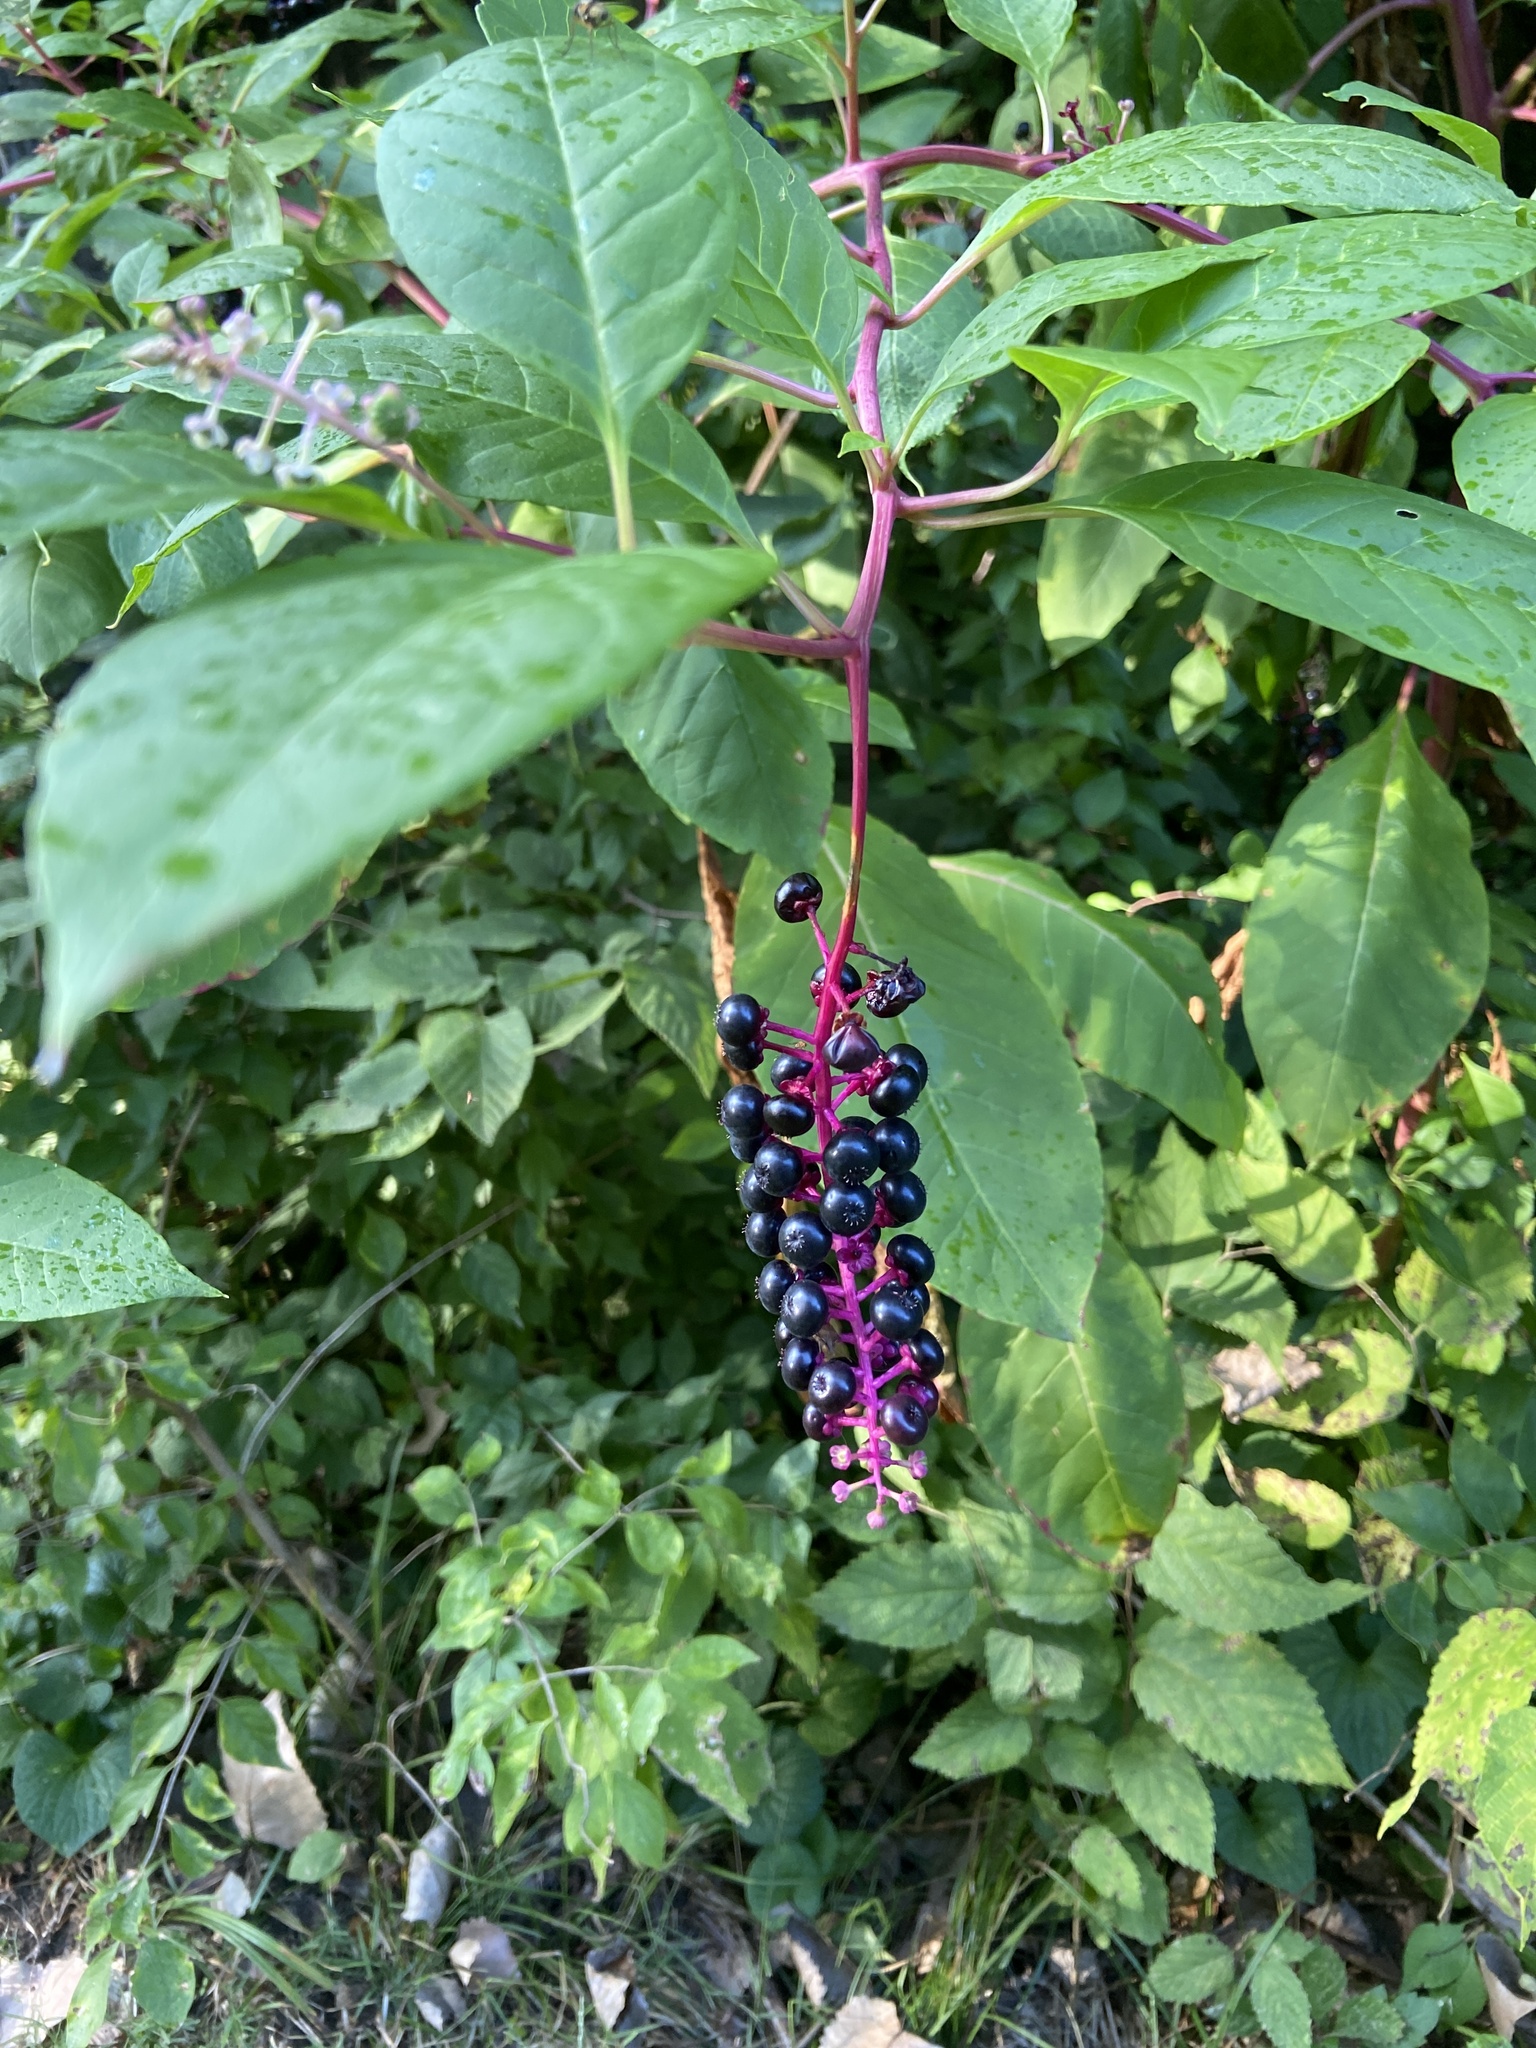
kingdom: Plantae
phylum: Tracheophyta
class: Magnoliopsida
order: Caryophyllales
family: Phytolaccaceae
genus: Phytolacca
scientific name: Phytolacca americana
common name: American pokeweed
